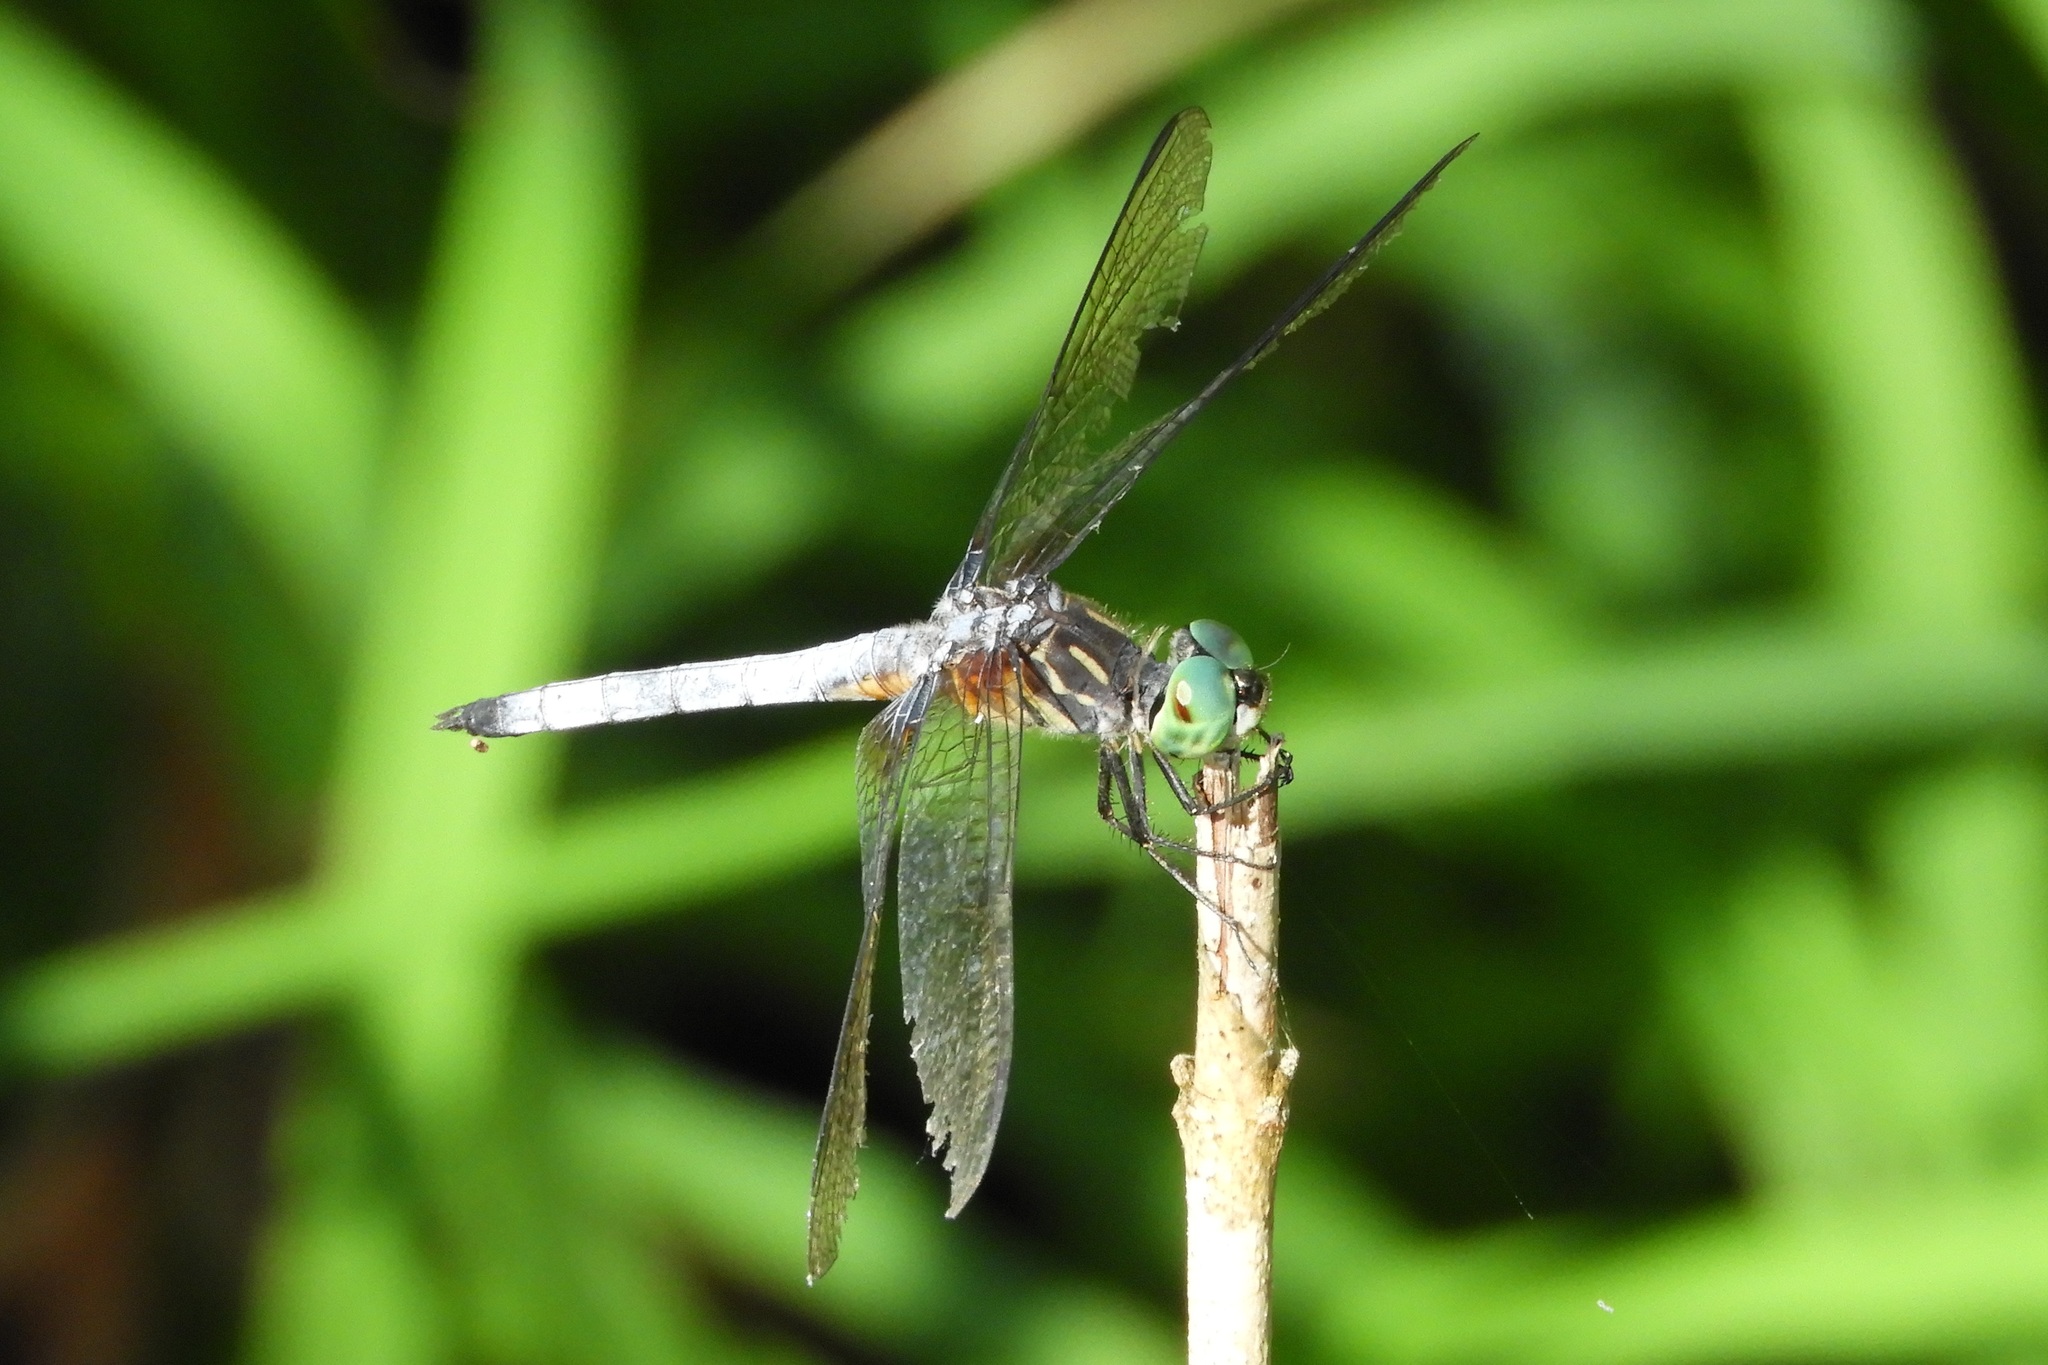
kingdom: Animalia
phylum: Arthropoda
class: Insecta
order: Odonata
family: Libellulidae
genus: Pachydiplax
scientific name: Pachydiplax longipennis
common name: Blue dasher
